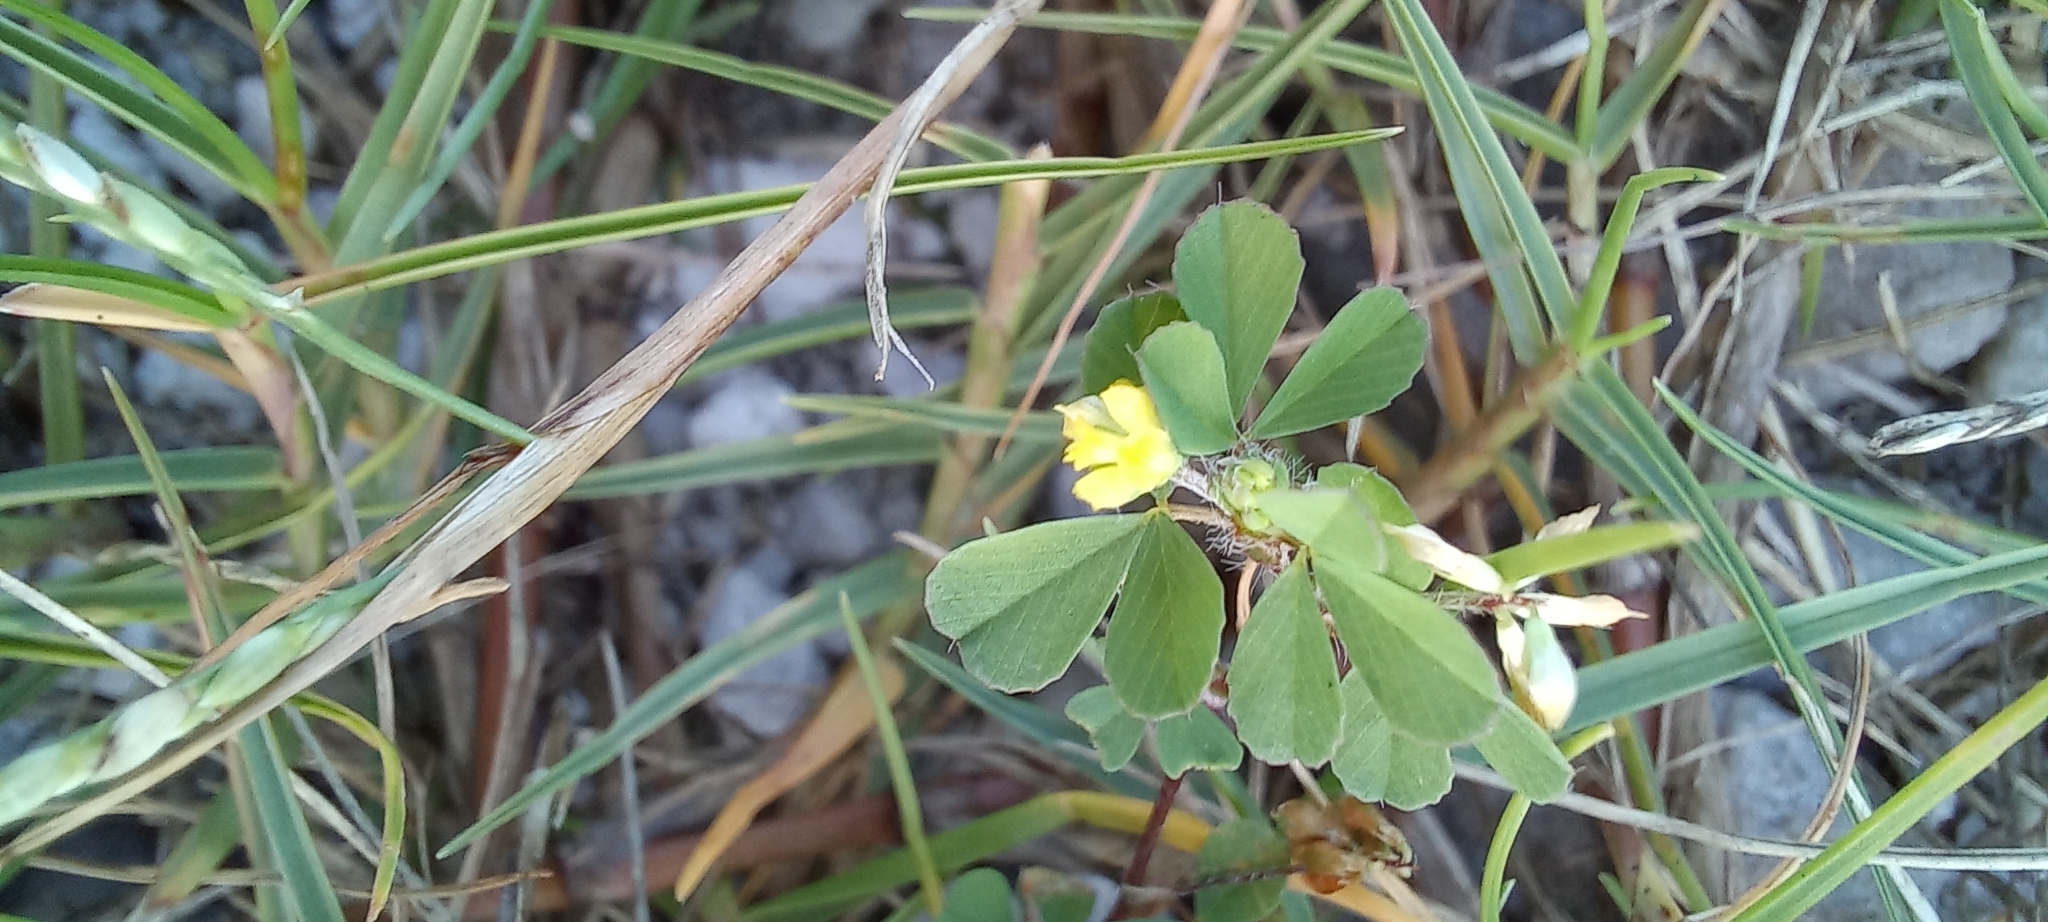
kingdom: Plantae
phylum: Tracheophyta
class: Magnoliopsida
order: Fabales
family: Fabaceae
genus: Medicago
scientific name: Medicago polymorpha
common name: Burclover
